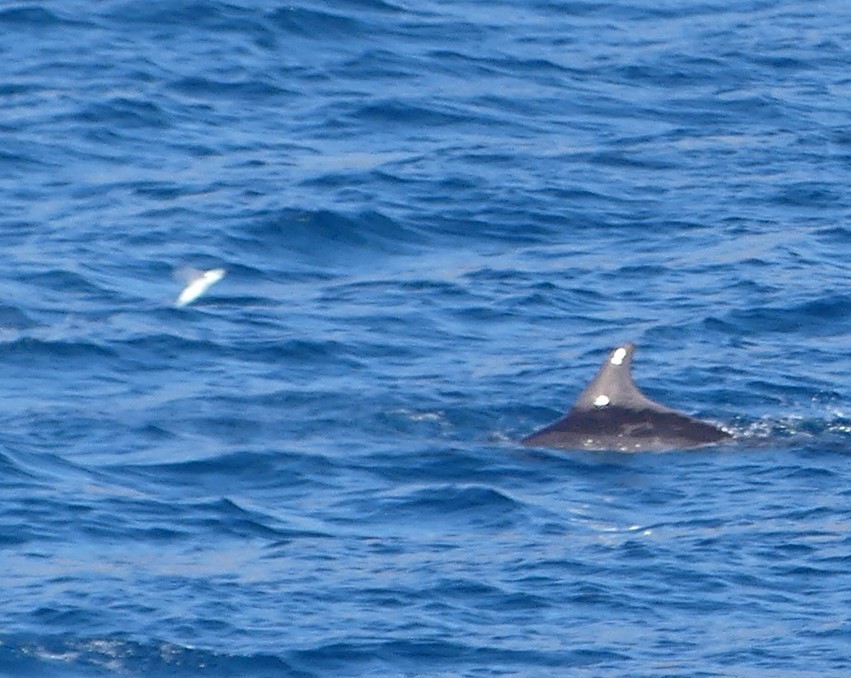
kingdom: Animalia
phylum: Chordata
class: Mammalia
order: Cetacea
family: Delphinidae
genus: Tursiops
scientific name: Tursiops truncatus
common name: Bottlenose dolphin
